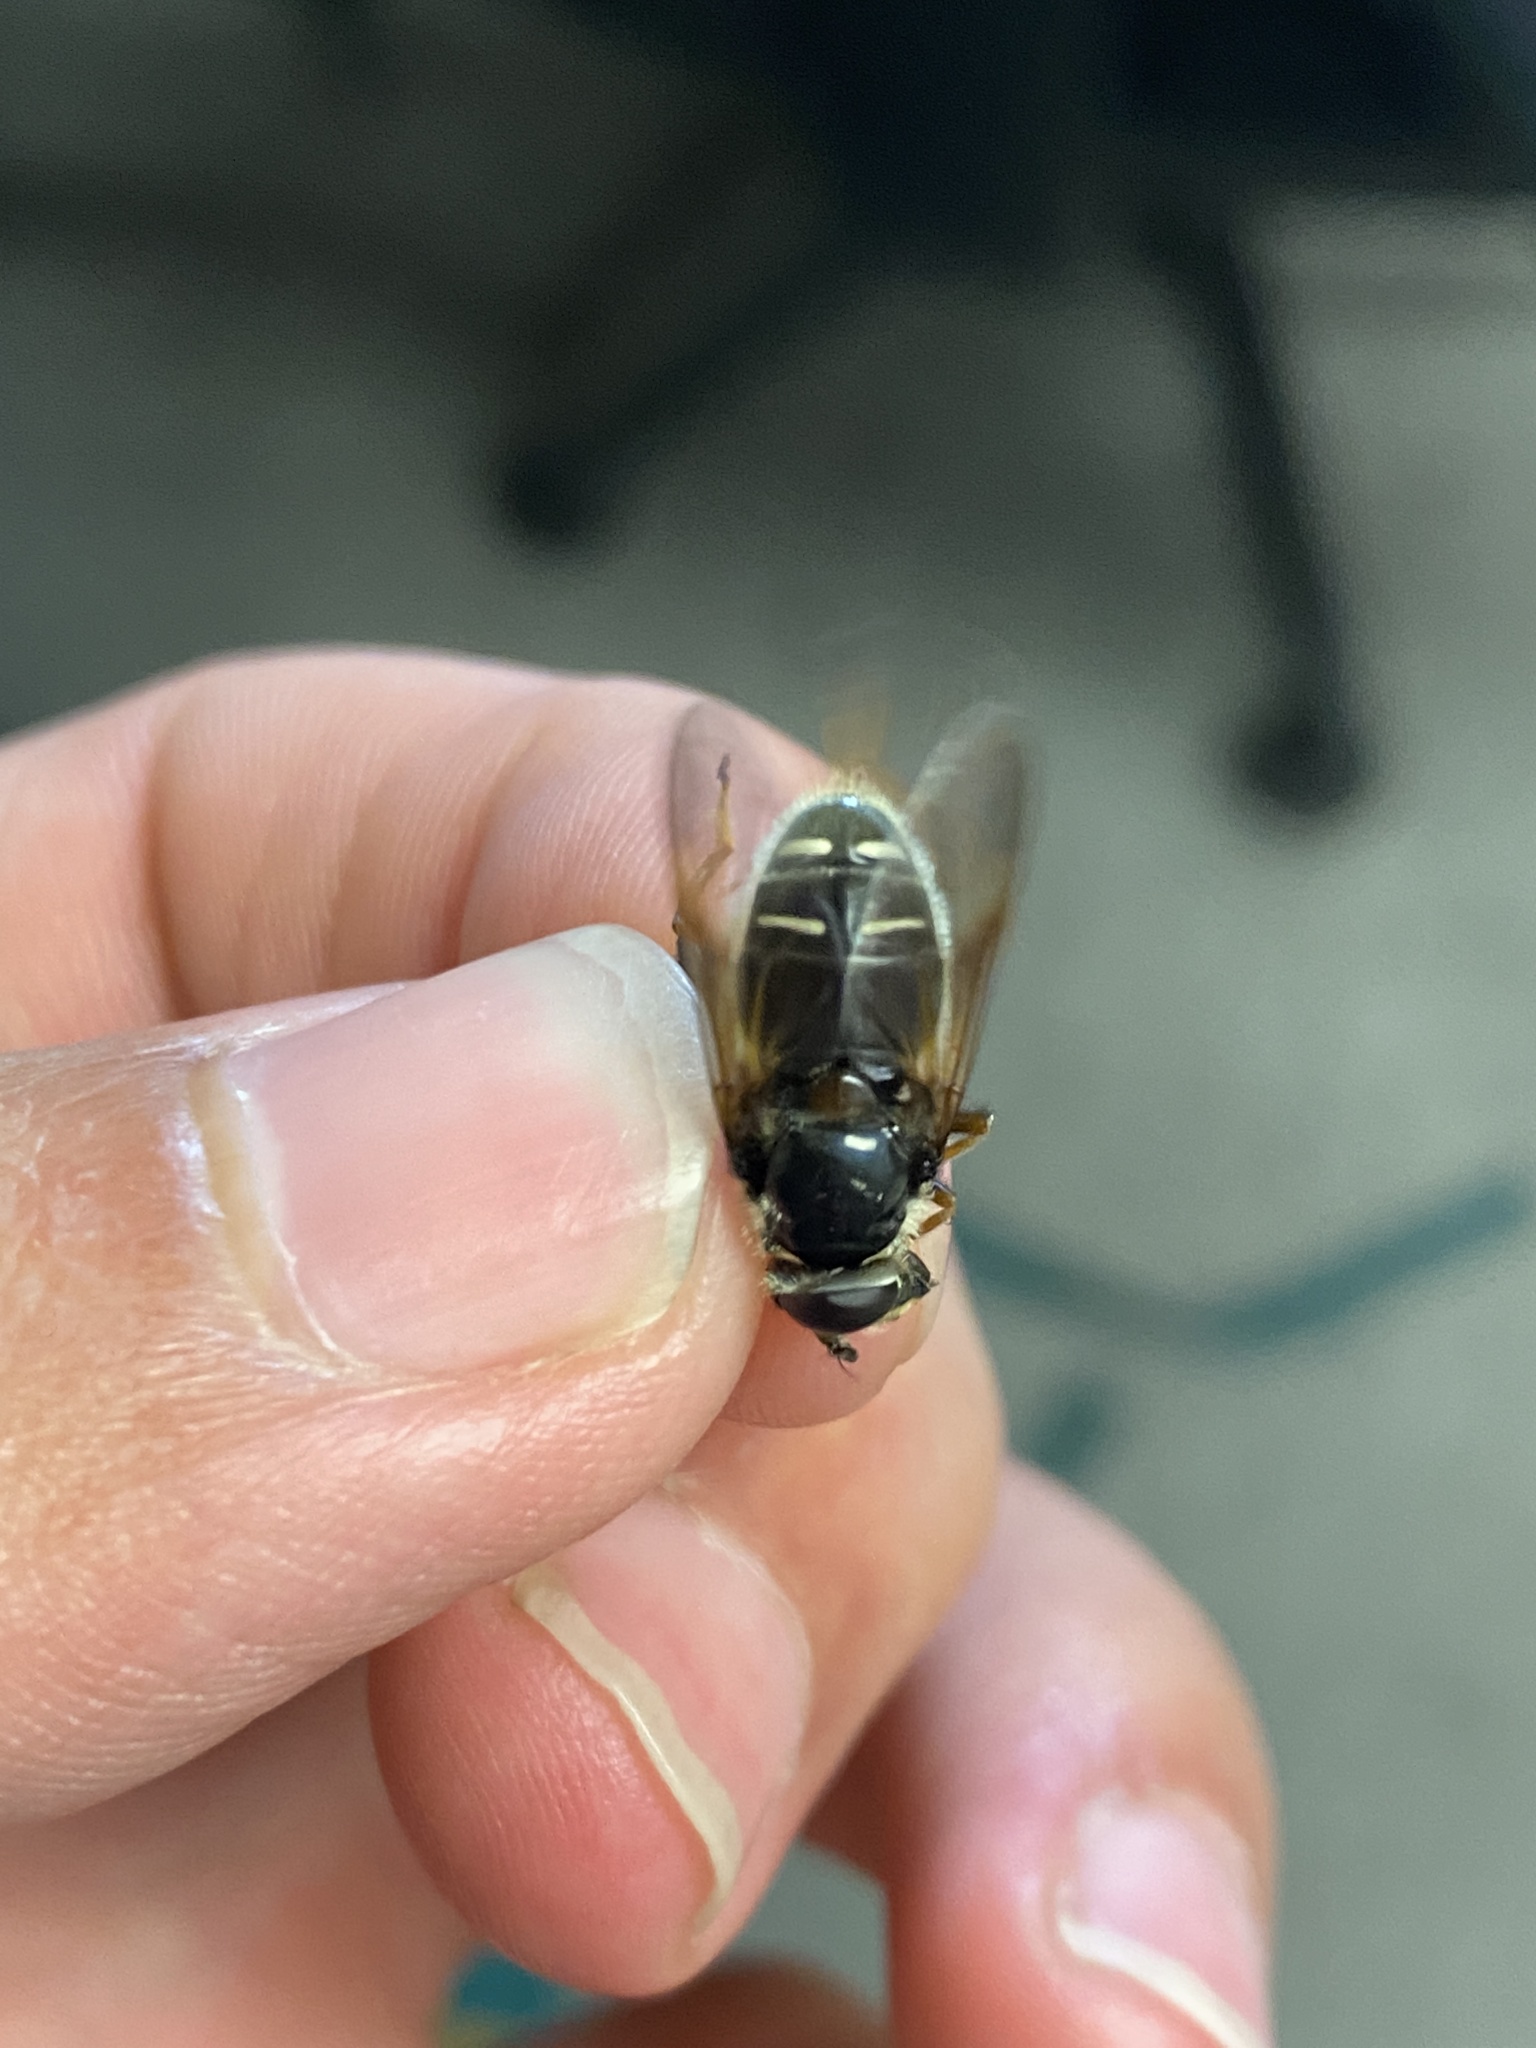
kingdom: Animalia
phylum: Arthropoda
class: Insecta
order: Diptera
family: Syrphidae
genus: Sericomyia
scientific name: Sericomyia militaris
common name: Narrow-banded pond fly
